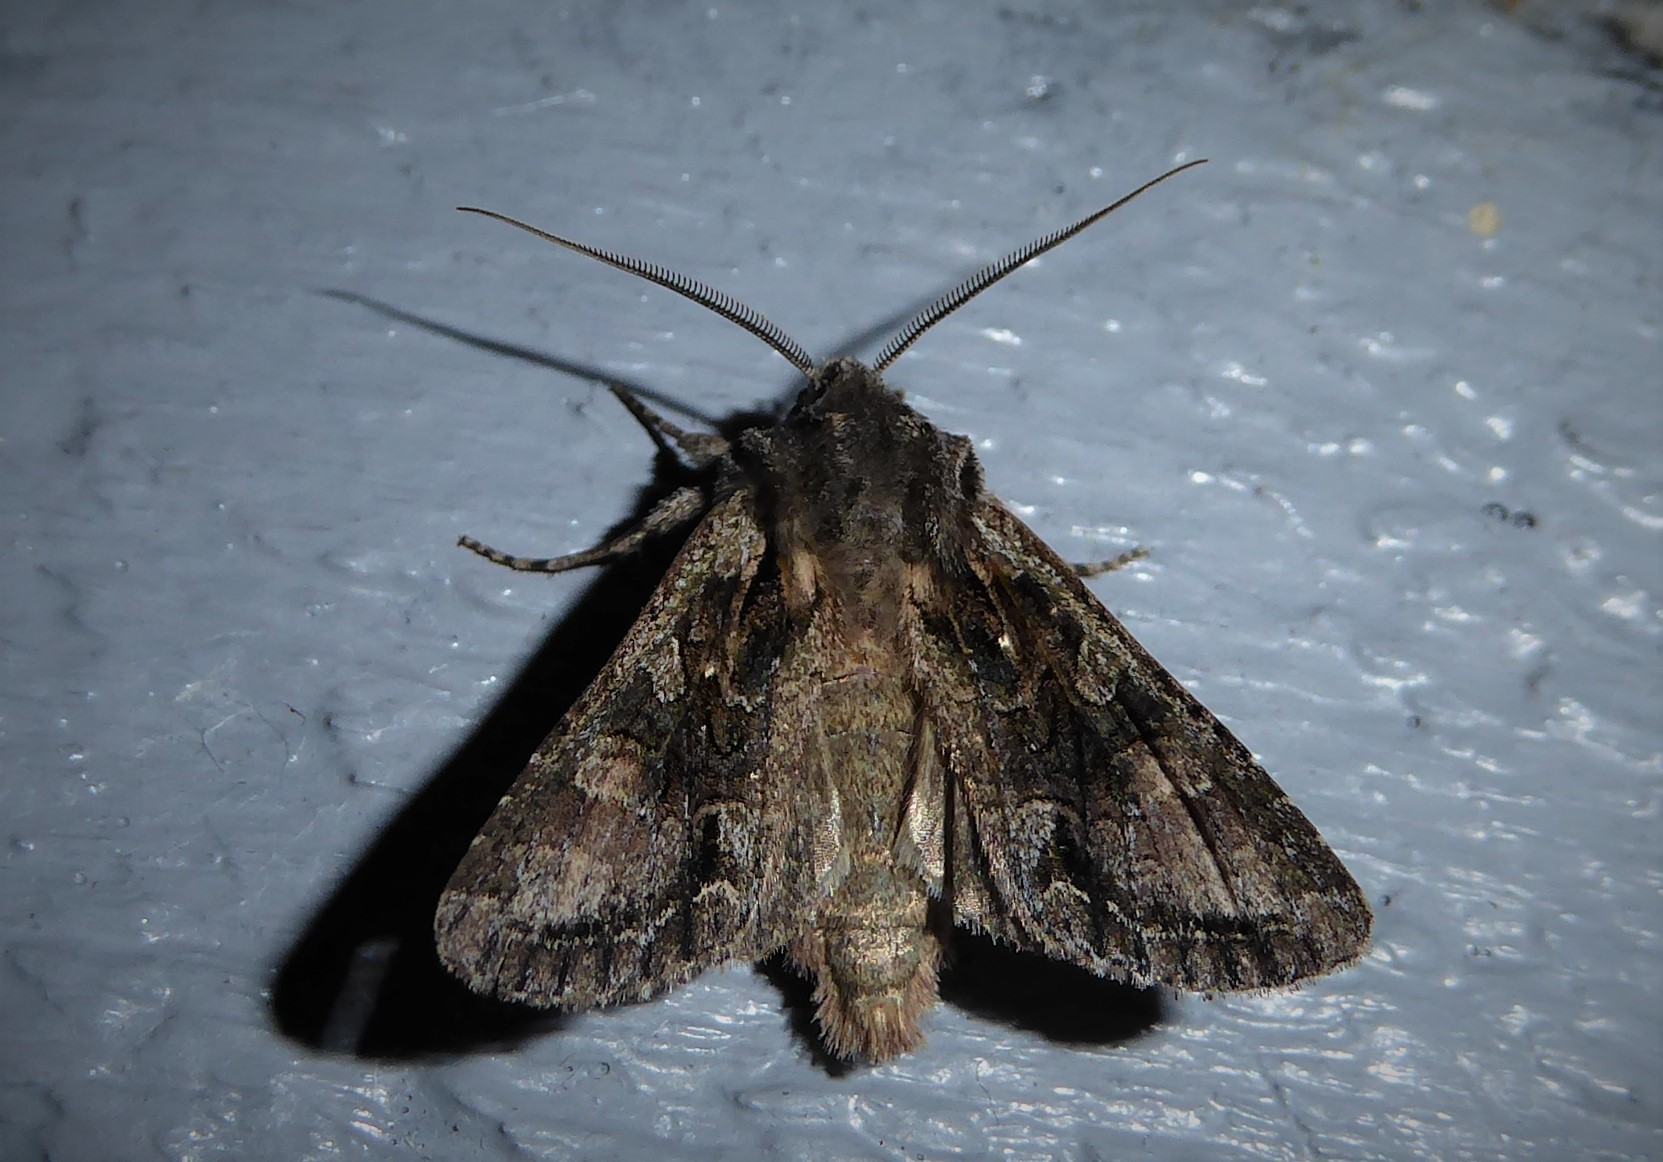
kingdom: Animalia
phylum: Arthropoda
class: Insecta
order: Lepidoptera
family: Noctuidae
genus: Ichneutica
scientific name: Ichneutica mutans
